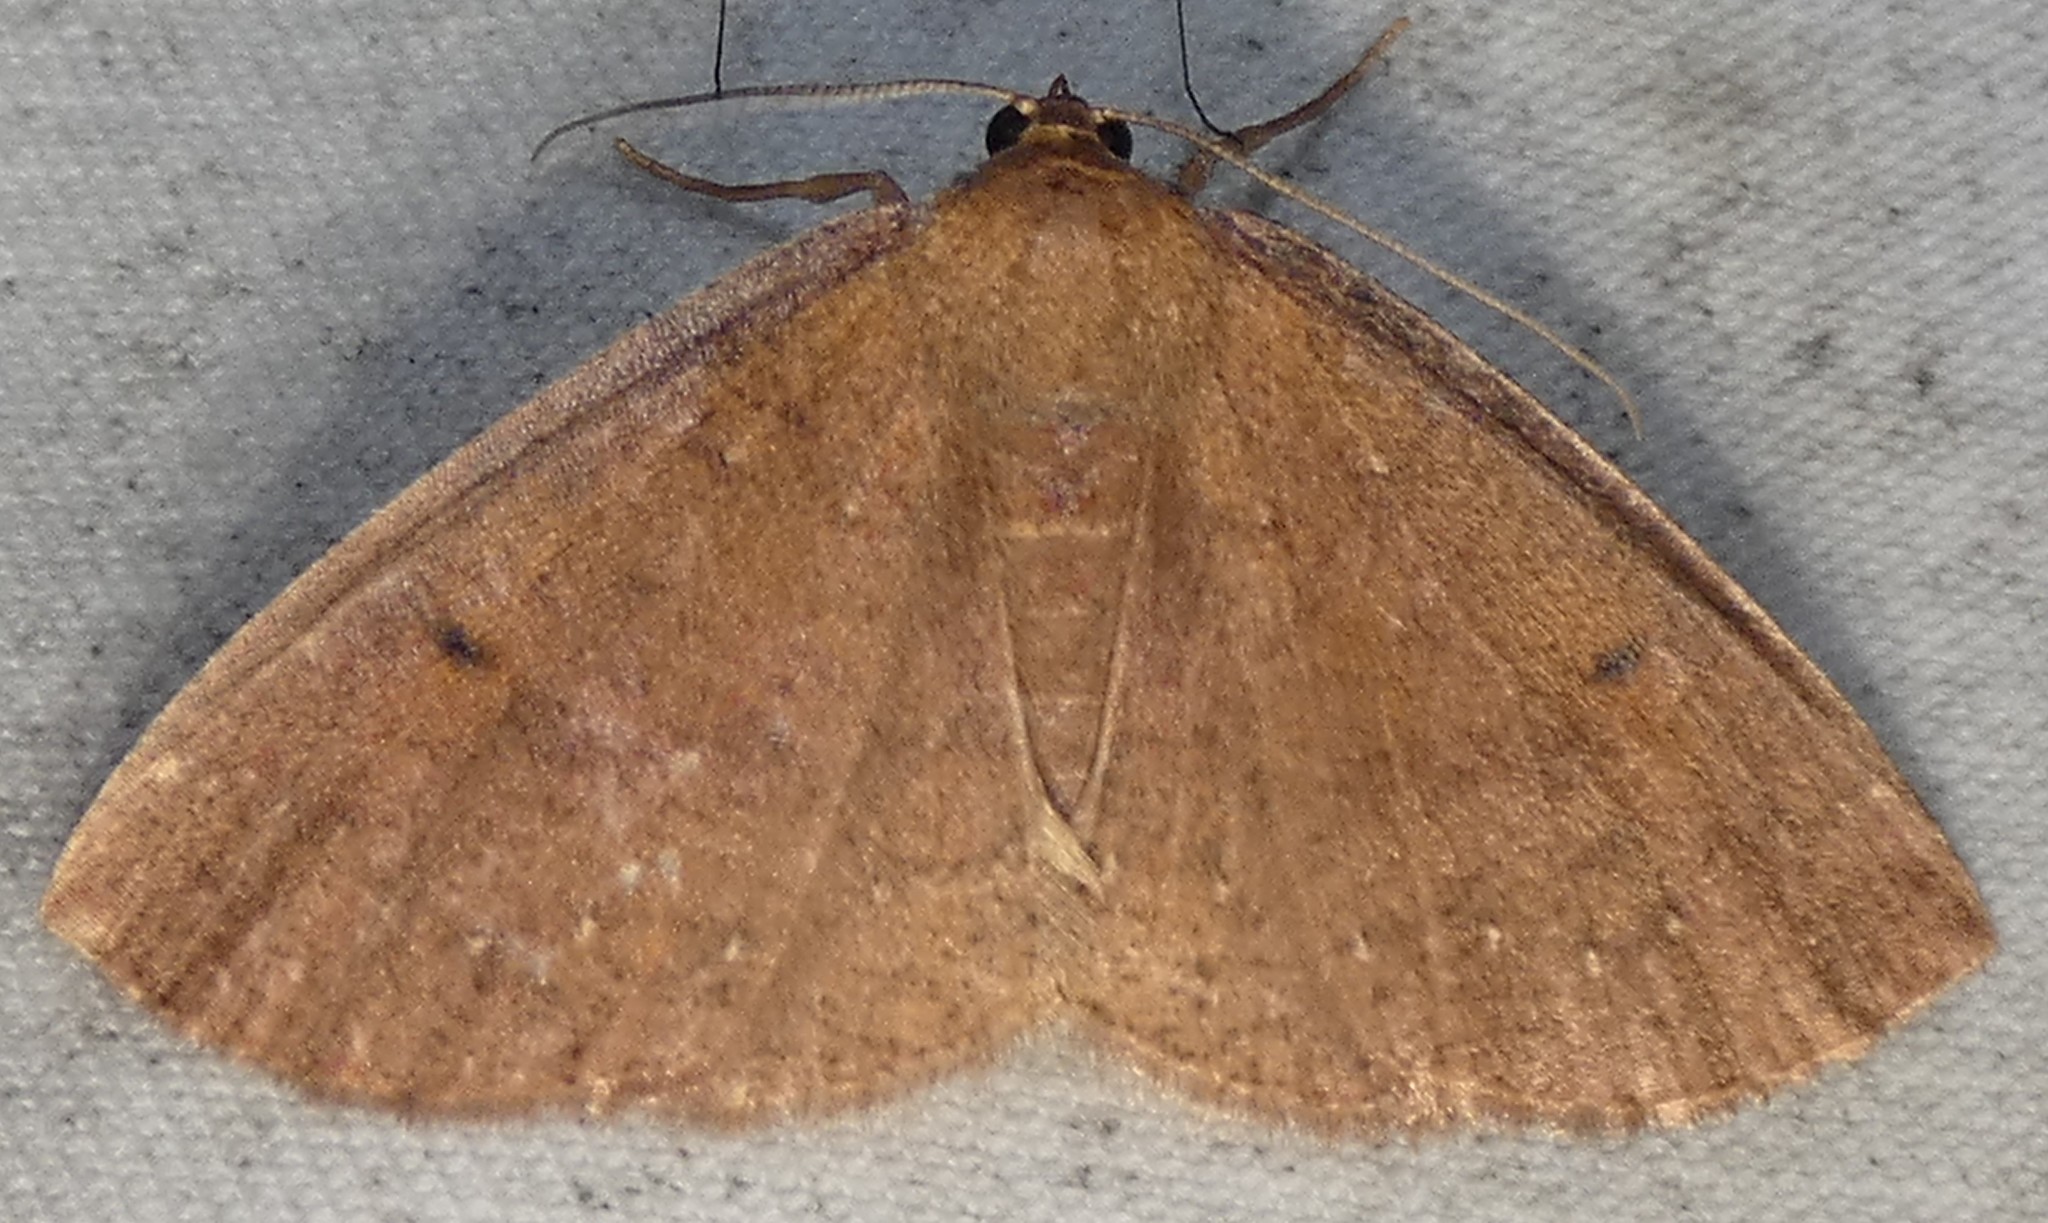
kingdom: Animalia
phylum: Arthropoda
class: Insecta
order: Lepidoptera
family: Geometridae
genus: Ilexia
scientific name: Ilexia intractata
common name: Black-dotted ruddy moth
